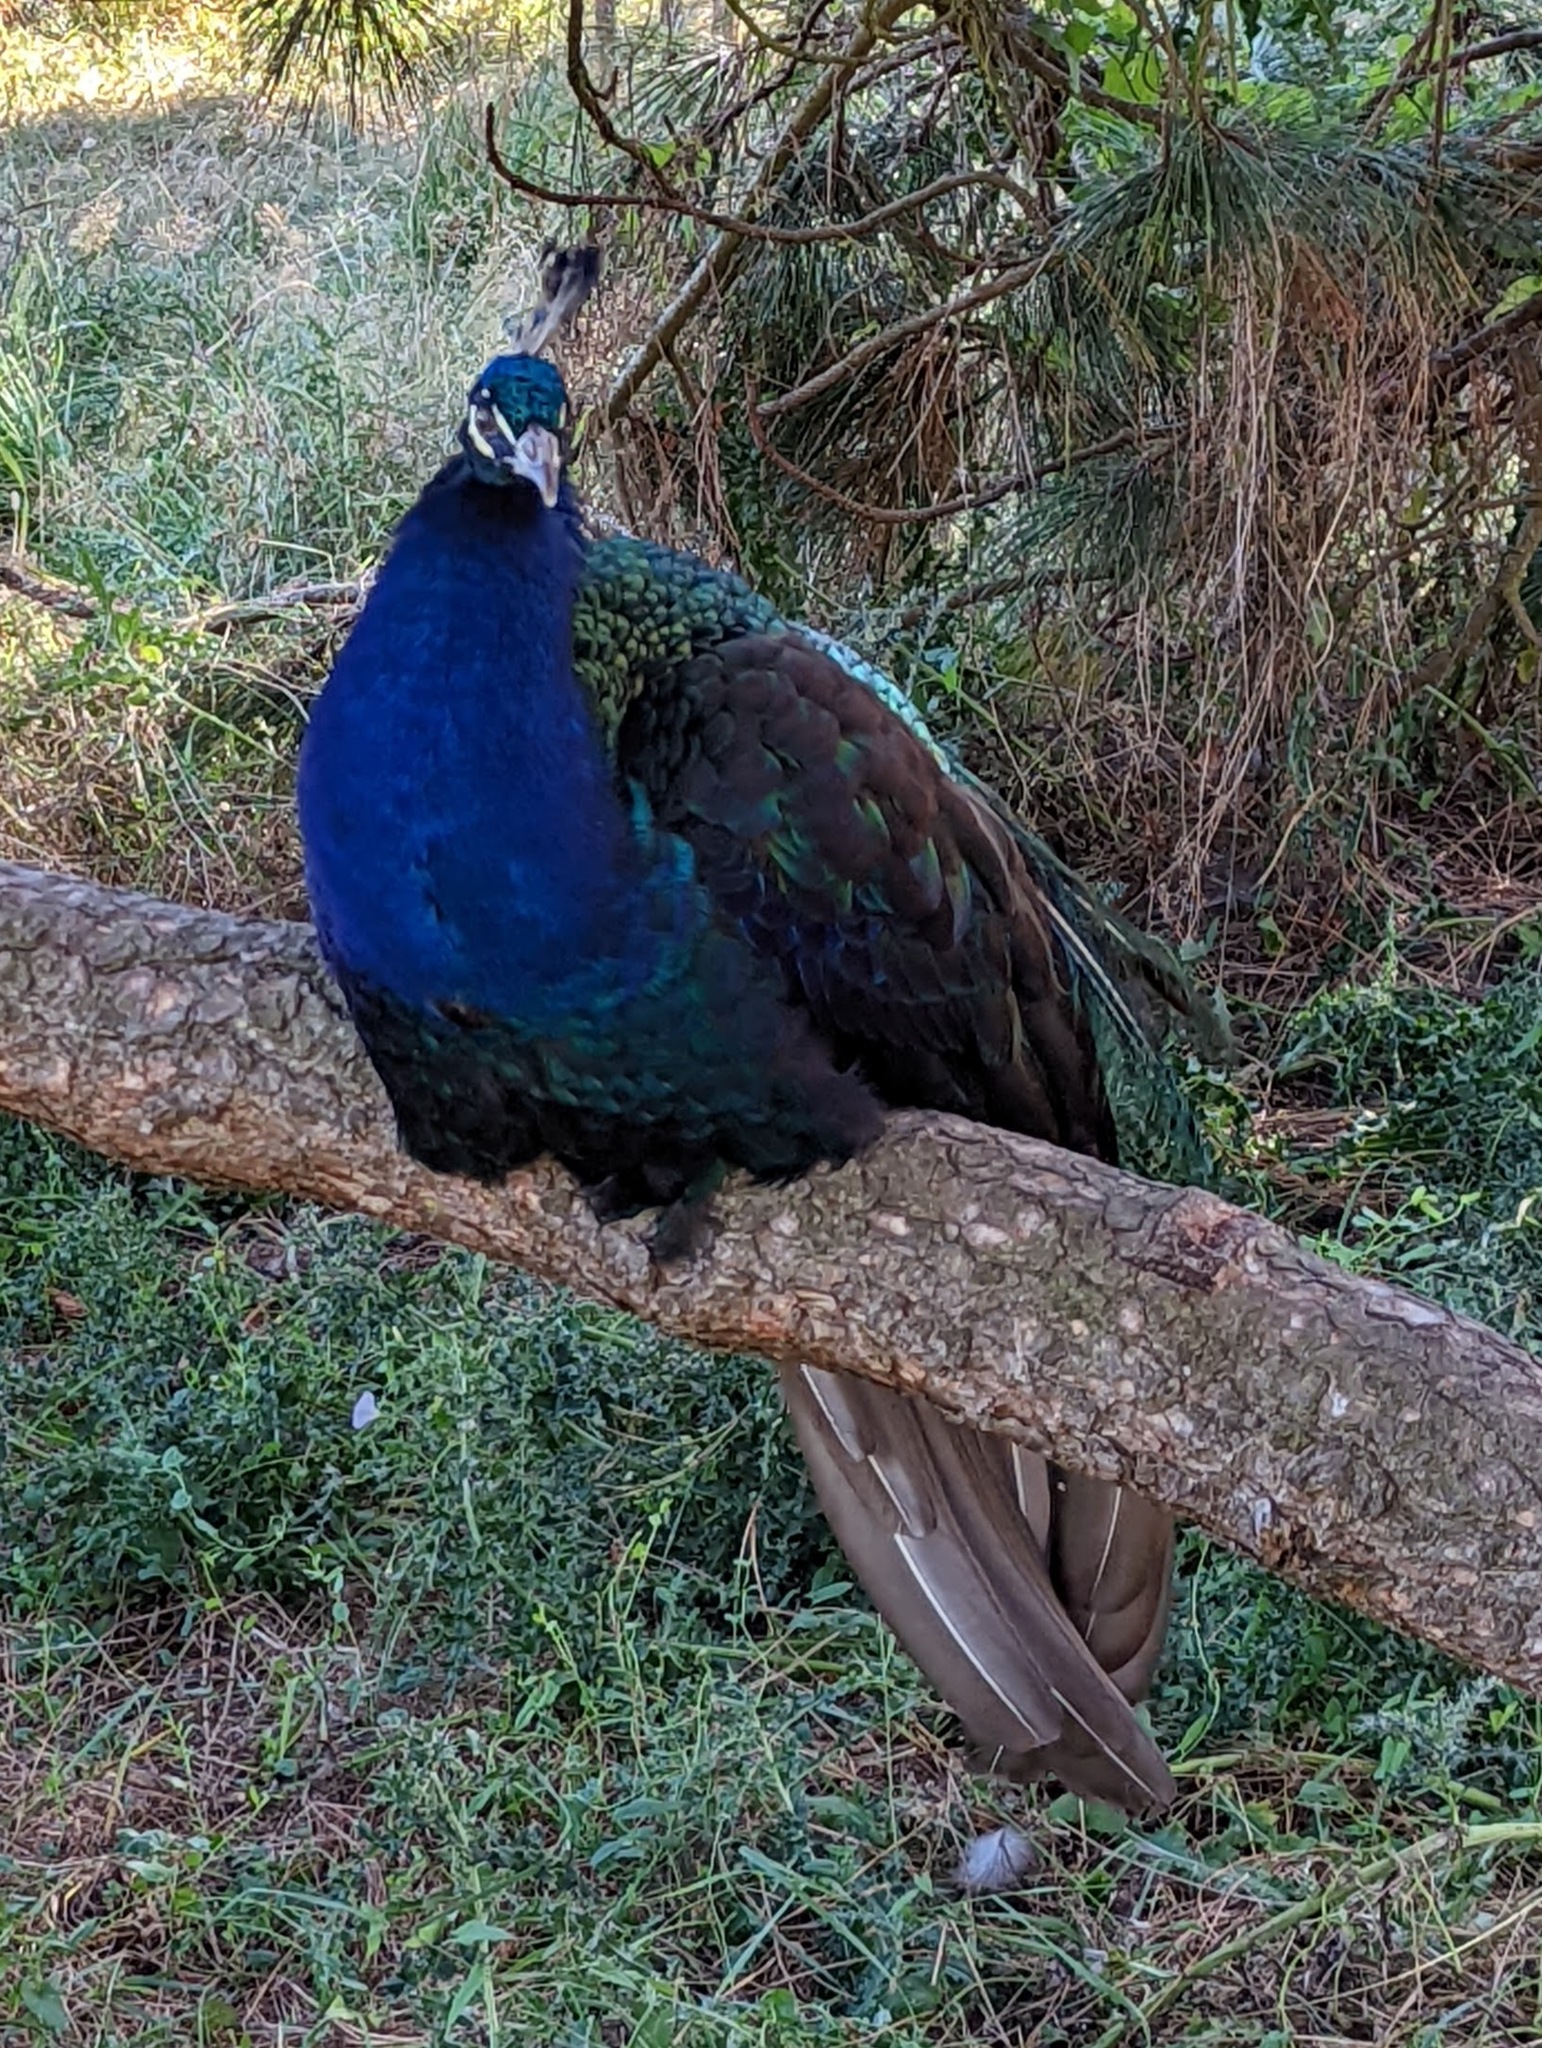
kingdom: Animalia
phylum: Chordata
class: Aves
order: Galliformes
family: Phasianidae
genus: Pavo
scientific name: Pavo cristatus
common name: Indian peafowl
